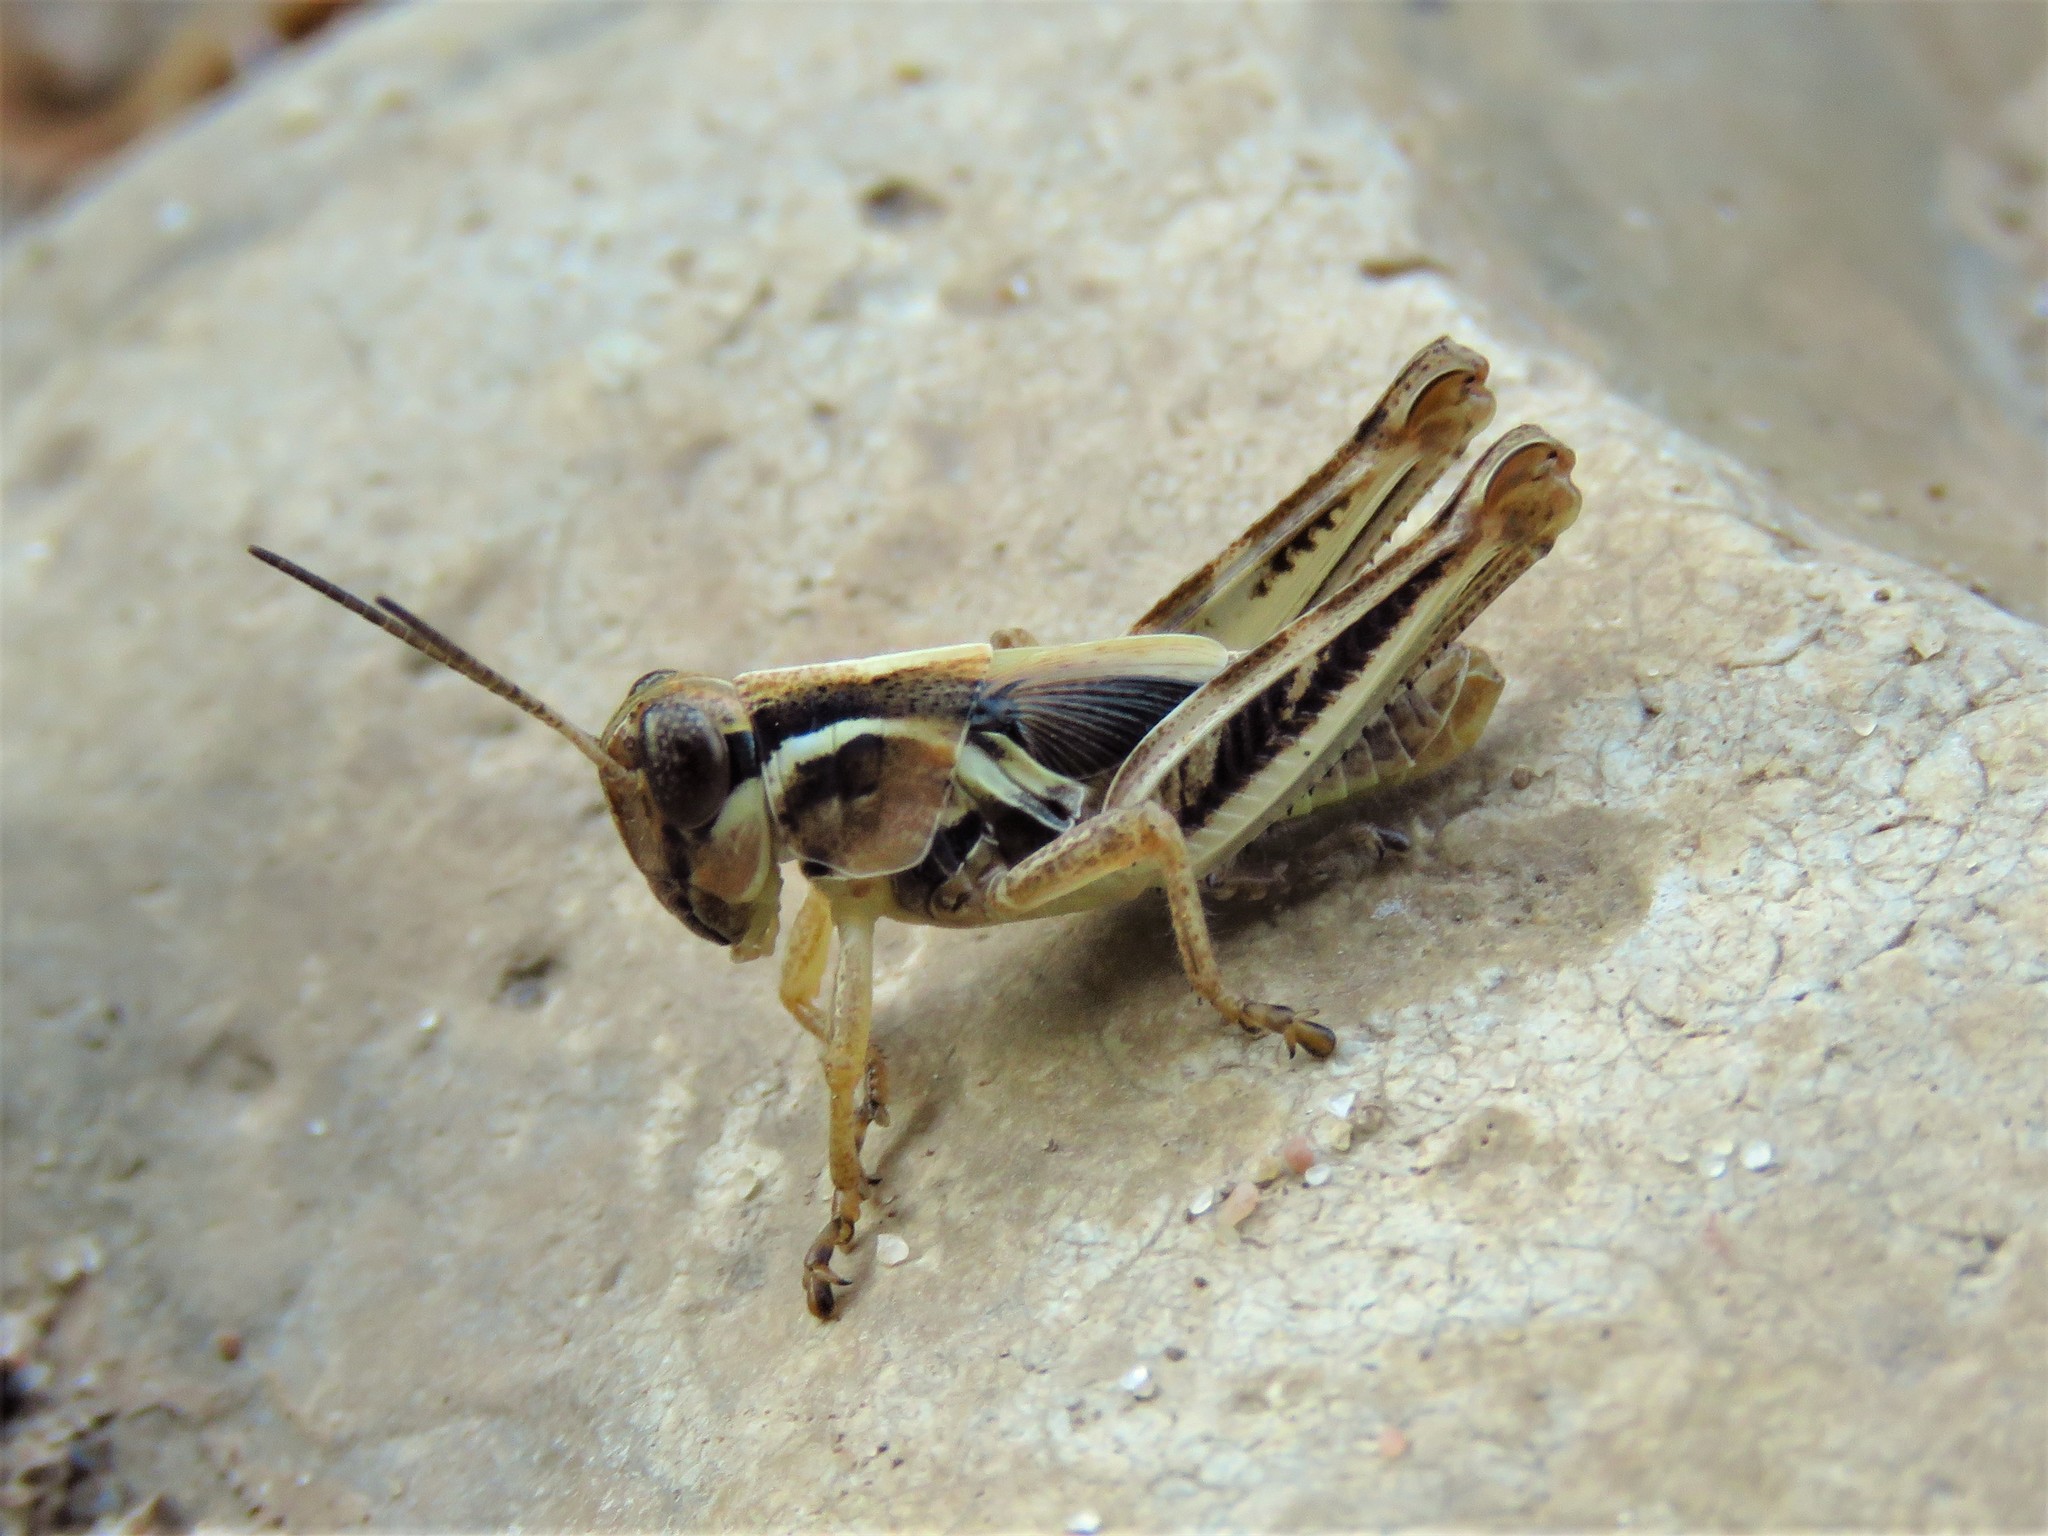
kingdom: Animalia
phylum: Arthropoda
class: Insecta
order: Orthoptera
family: Acrididae
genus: Melanoplus
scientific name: Melanoplus femurrubrum
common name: Red-legged grasshopper
